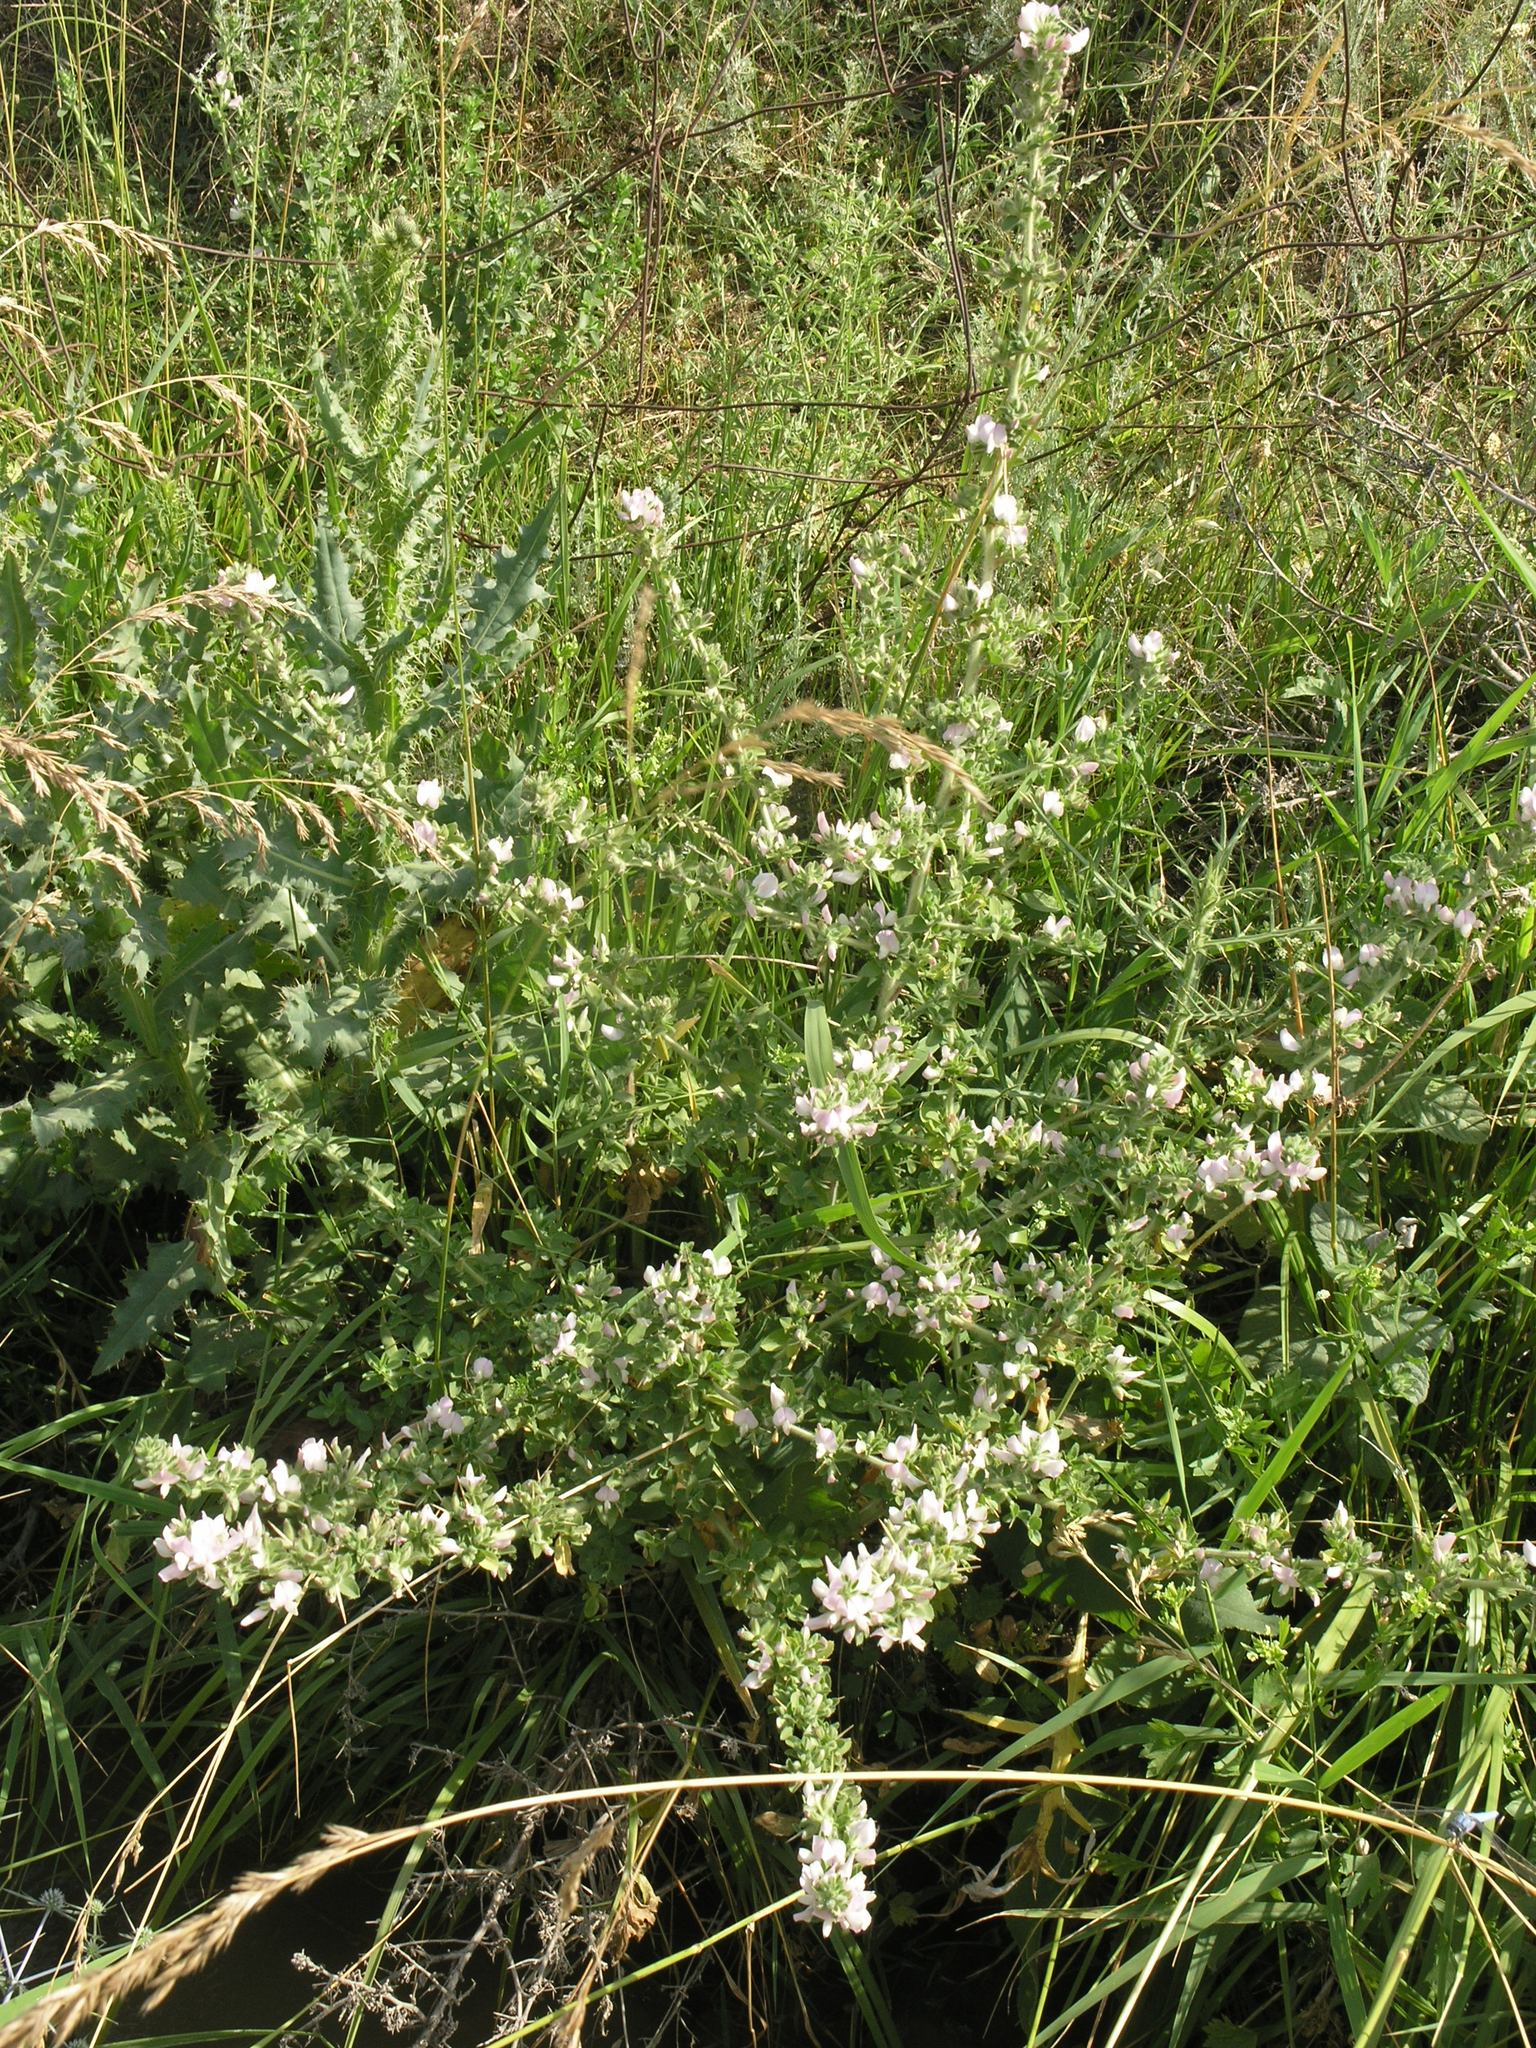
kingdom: Plantae
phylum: Tracheophyta
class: Magnoliopsida
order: Fabales
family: Fabaceae
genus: Ononis
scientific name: Ononis spinosa
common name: Spiny restharrow
